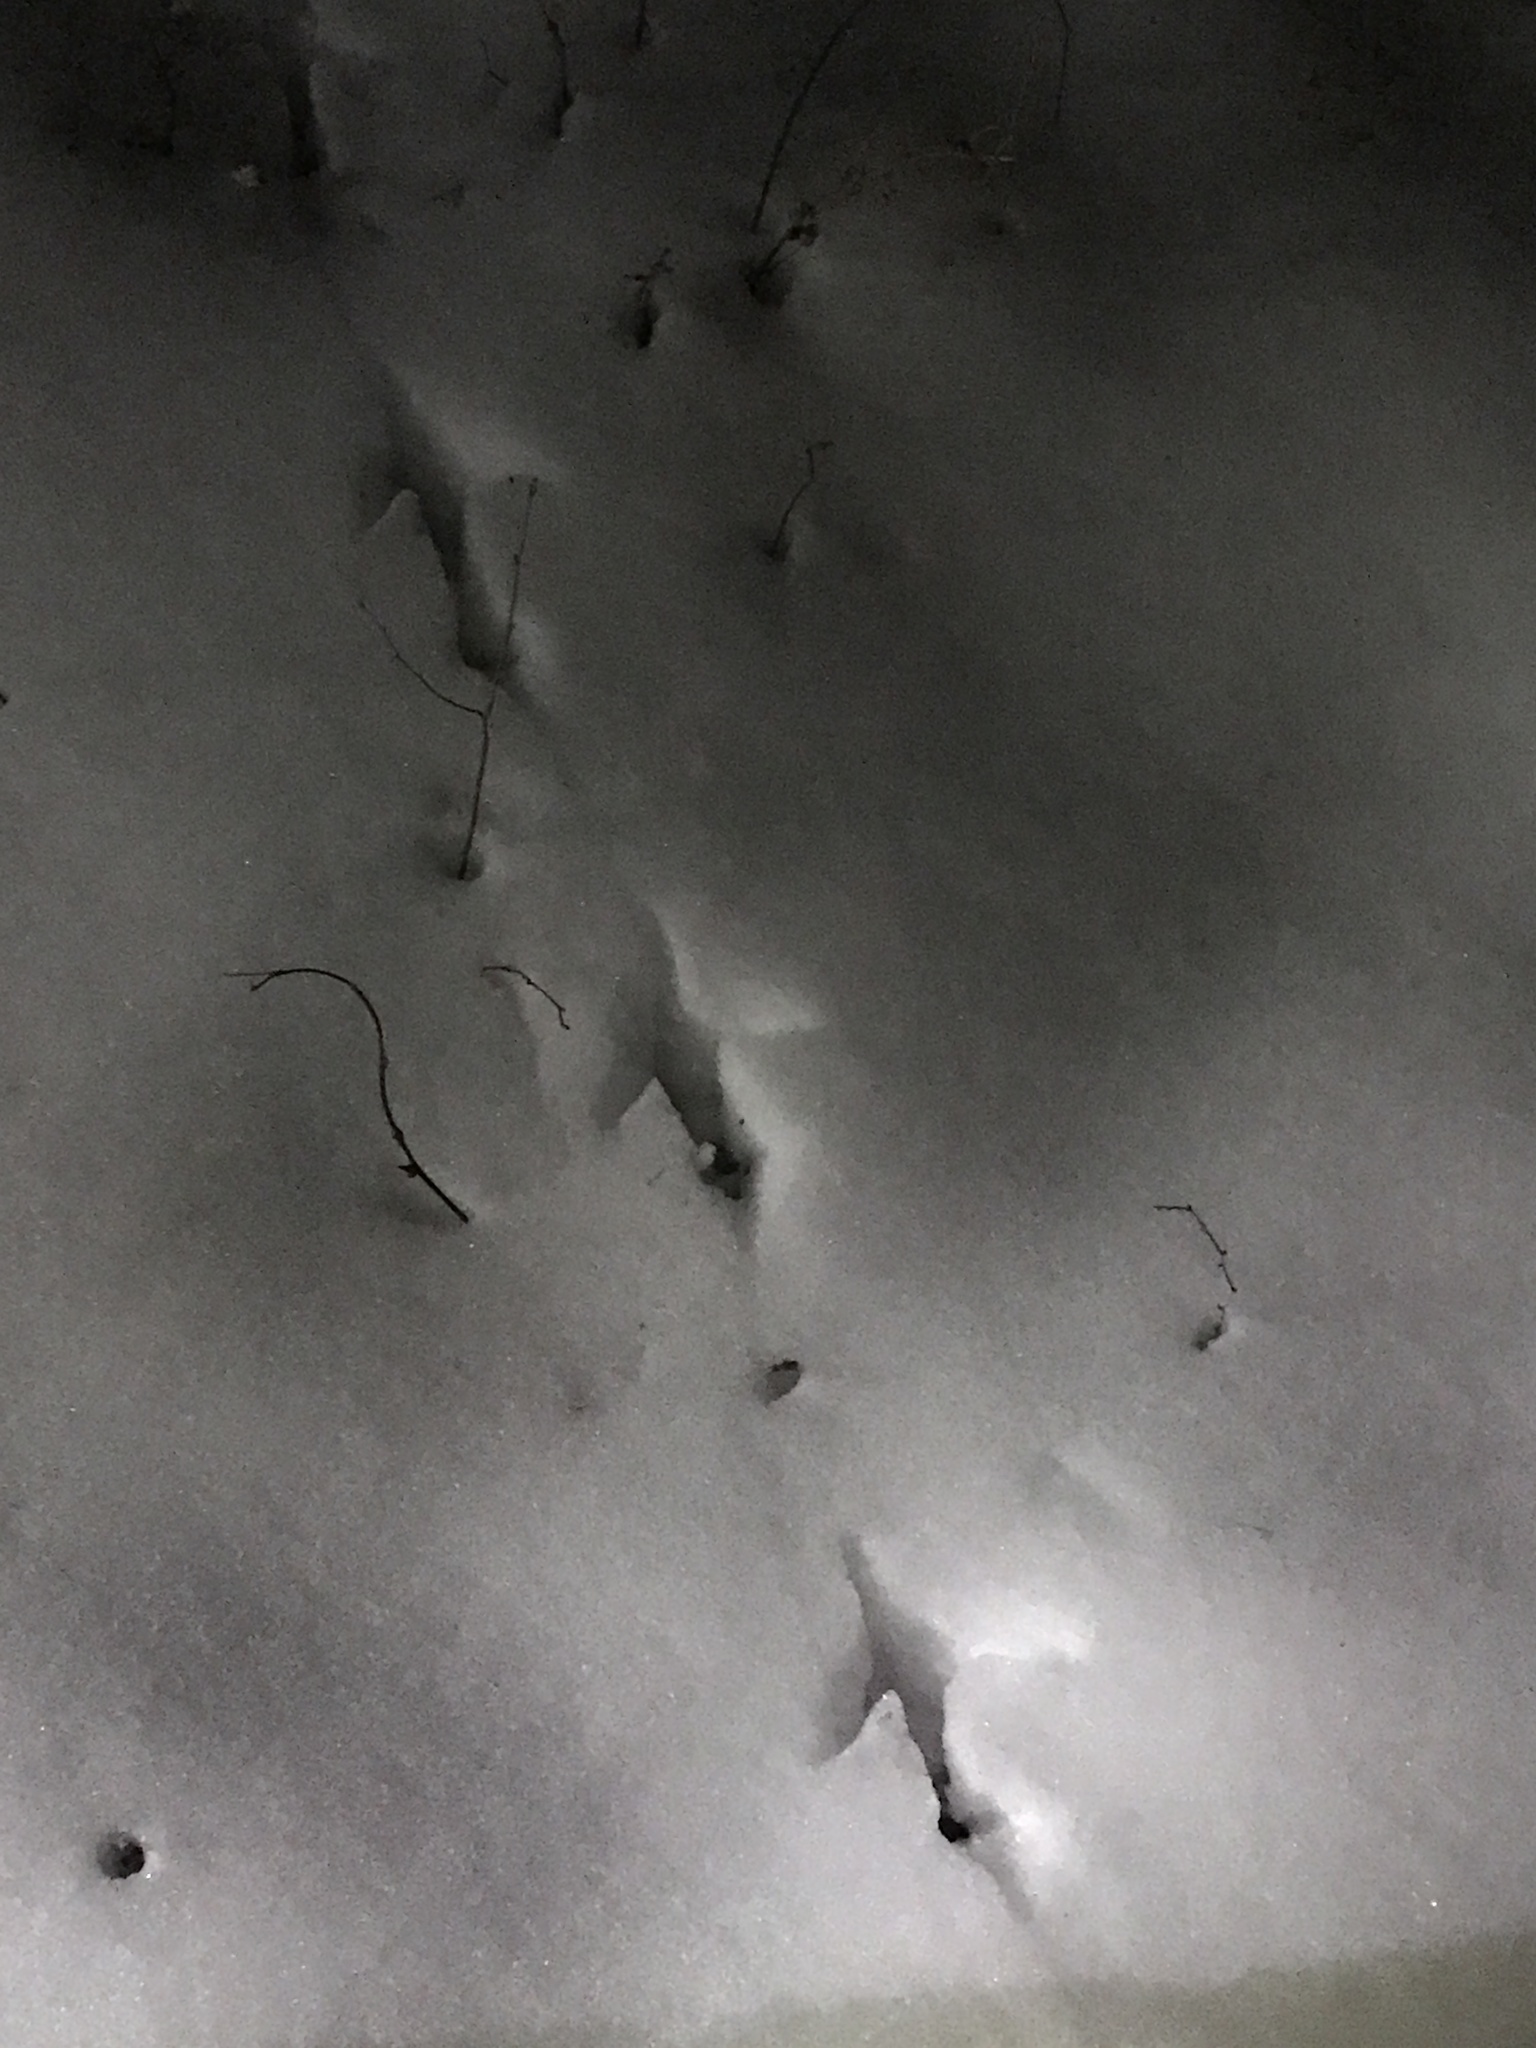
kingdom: Animalia
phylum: Chordata
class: Aves
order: Galliformes
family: Phasianidae
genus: Meleagris
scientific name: Meleagris gallopavo
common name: Wild turkey
